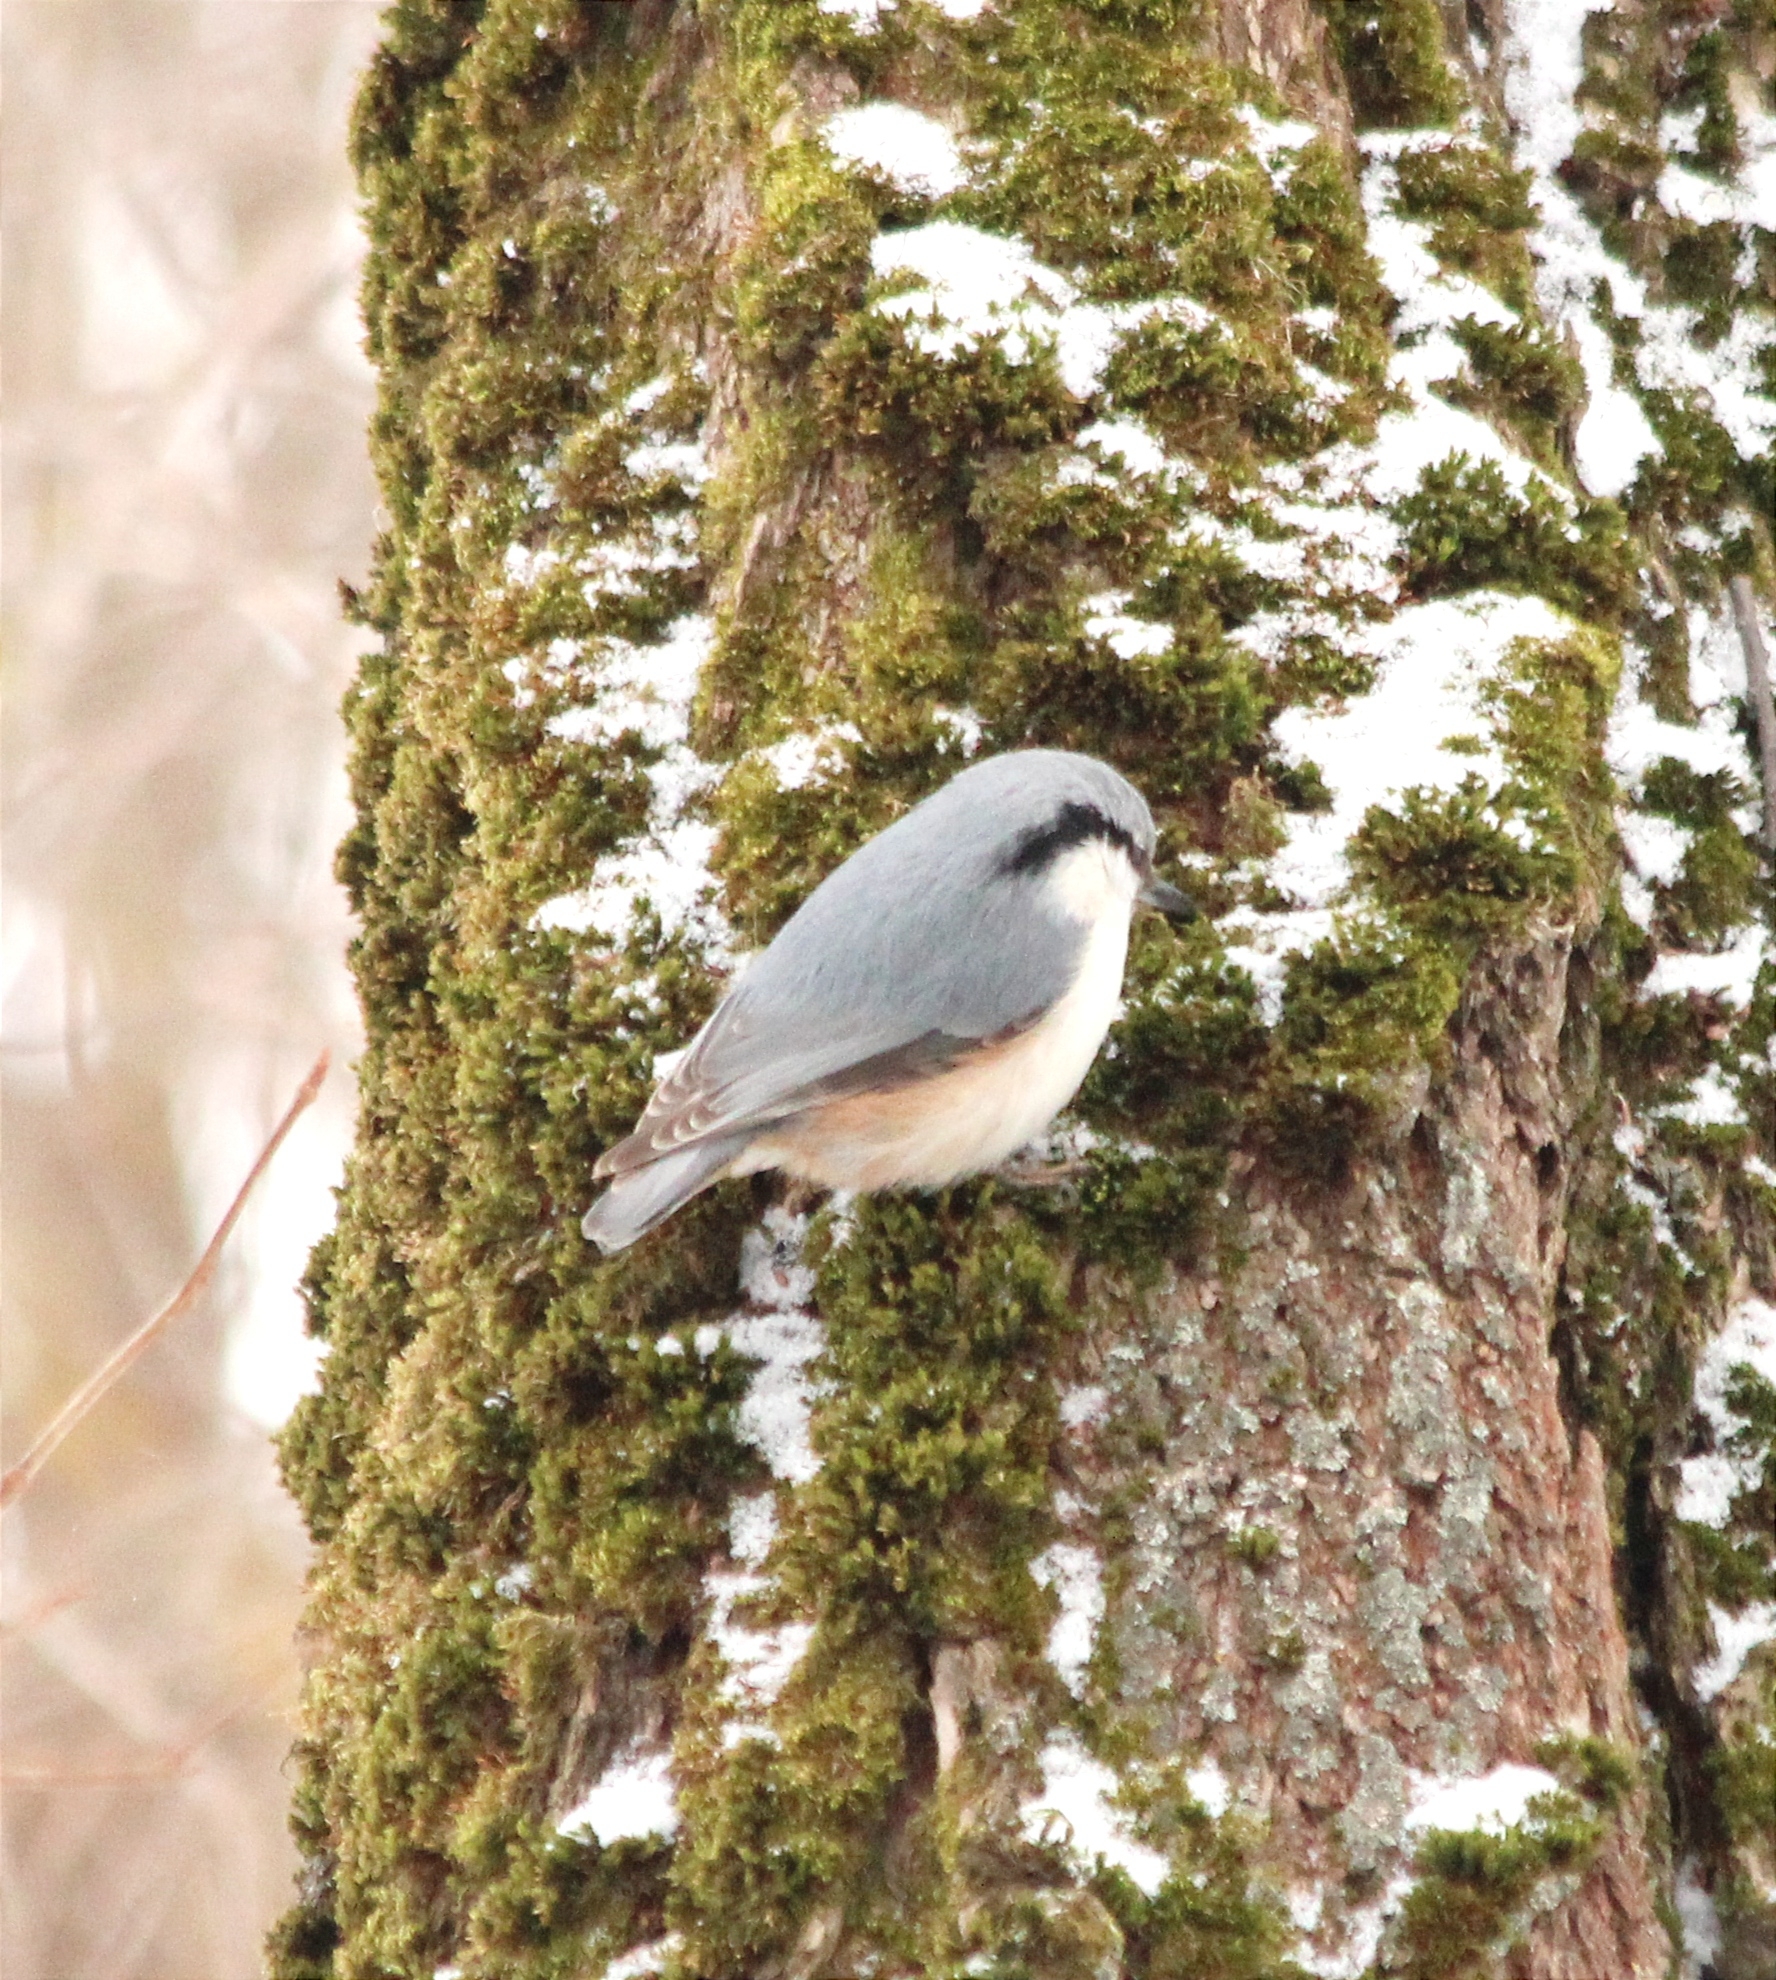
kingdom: Animalia
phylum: Chordata
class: Aves
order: Passeriformes
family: Sittidae
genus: Sitta
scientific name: Sitta europaea
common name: Eurasian nuthatch
